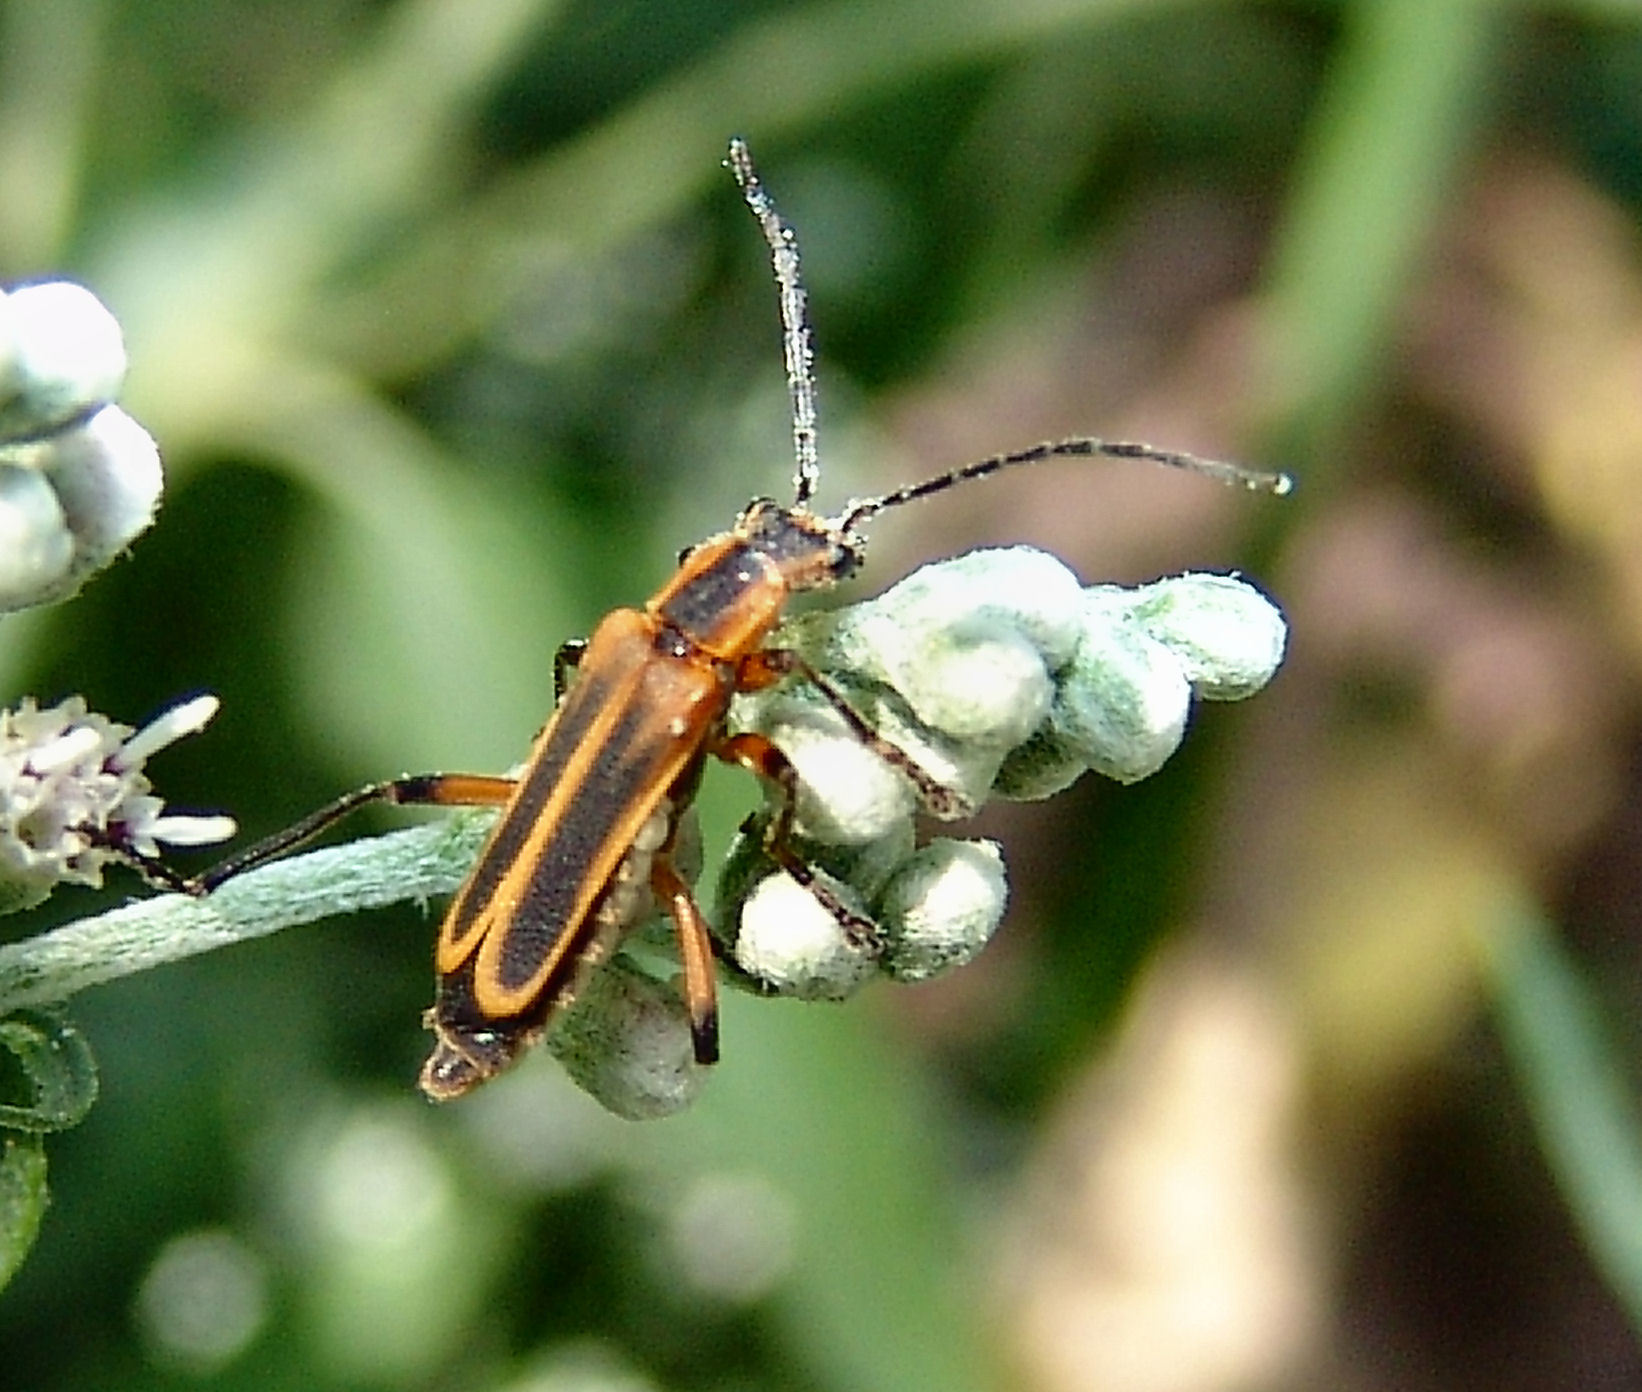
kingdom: Animalia
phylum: Arthropoda
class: Insecta
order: Coleoptera
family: Cantharidae
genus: Chauliognathus
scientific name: Chauliognathus marginatus
